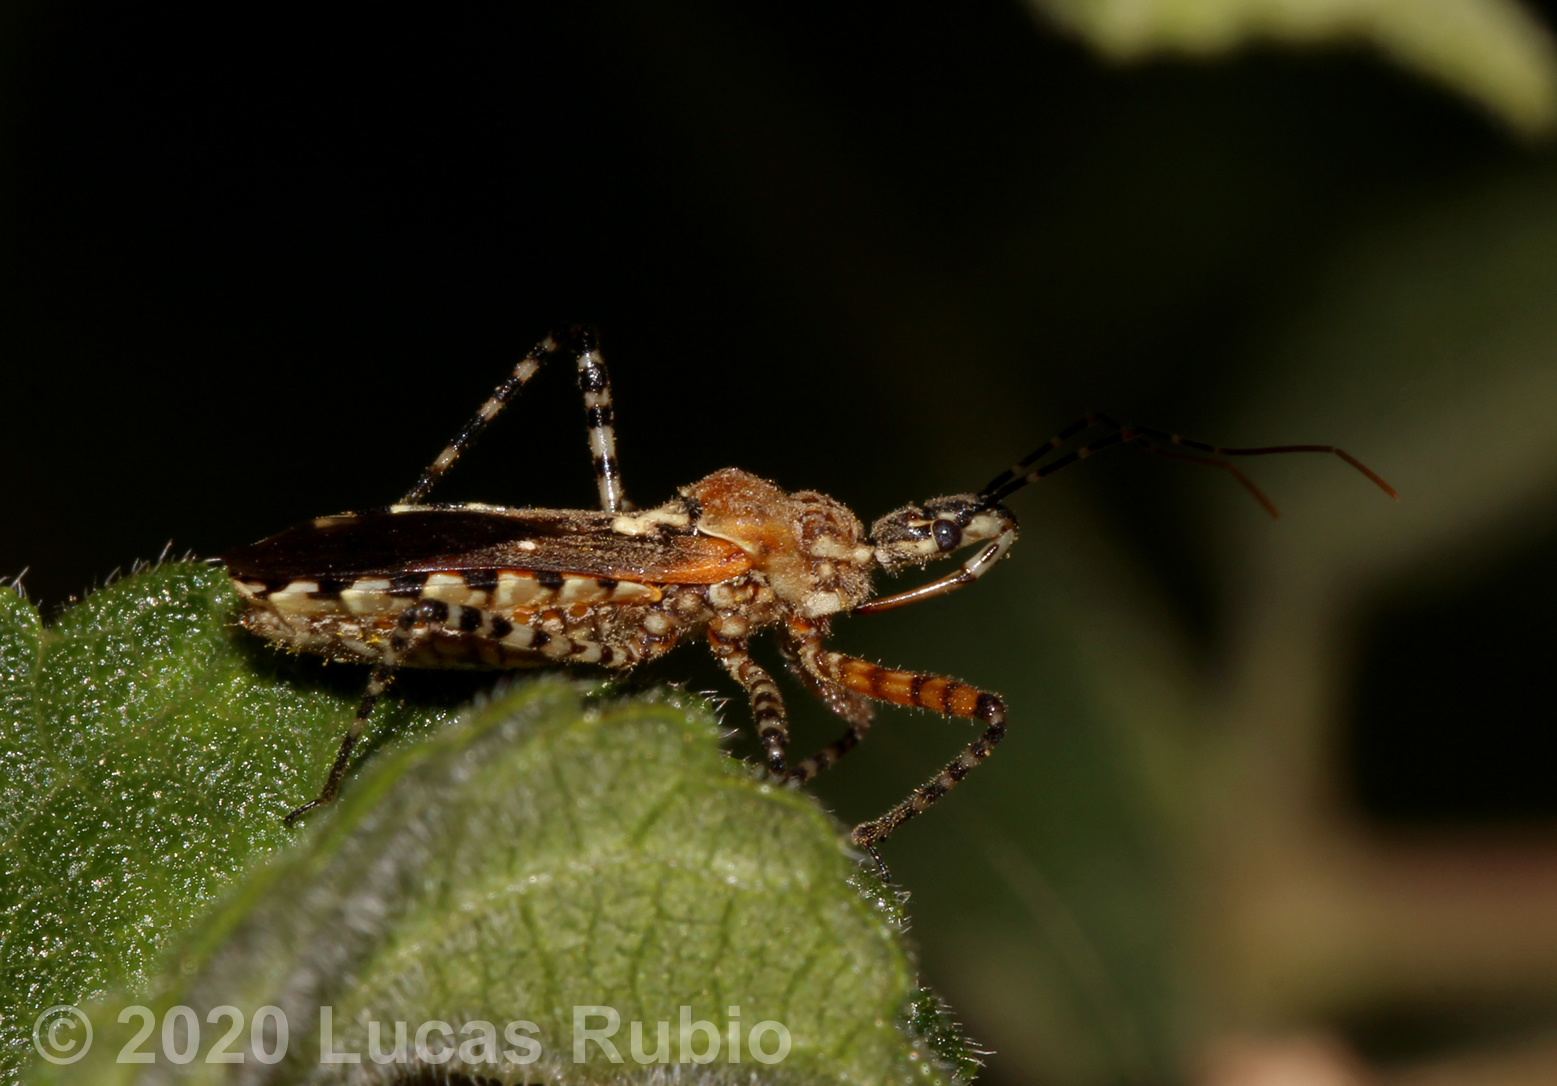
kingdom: Animalia
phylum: Arthropoda
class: Insecta
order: Hemiptera
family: Reduviidae
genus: Cosmoclopius
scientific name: Cosmoclopius nigroannulatus
